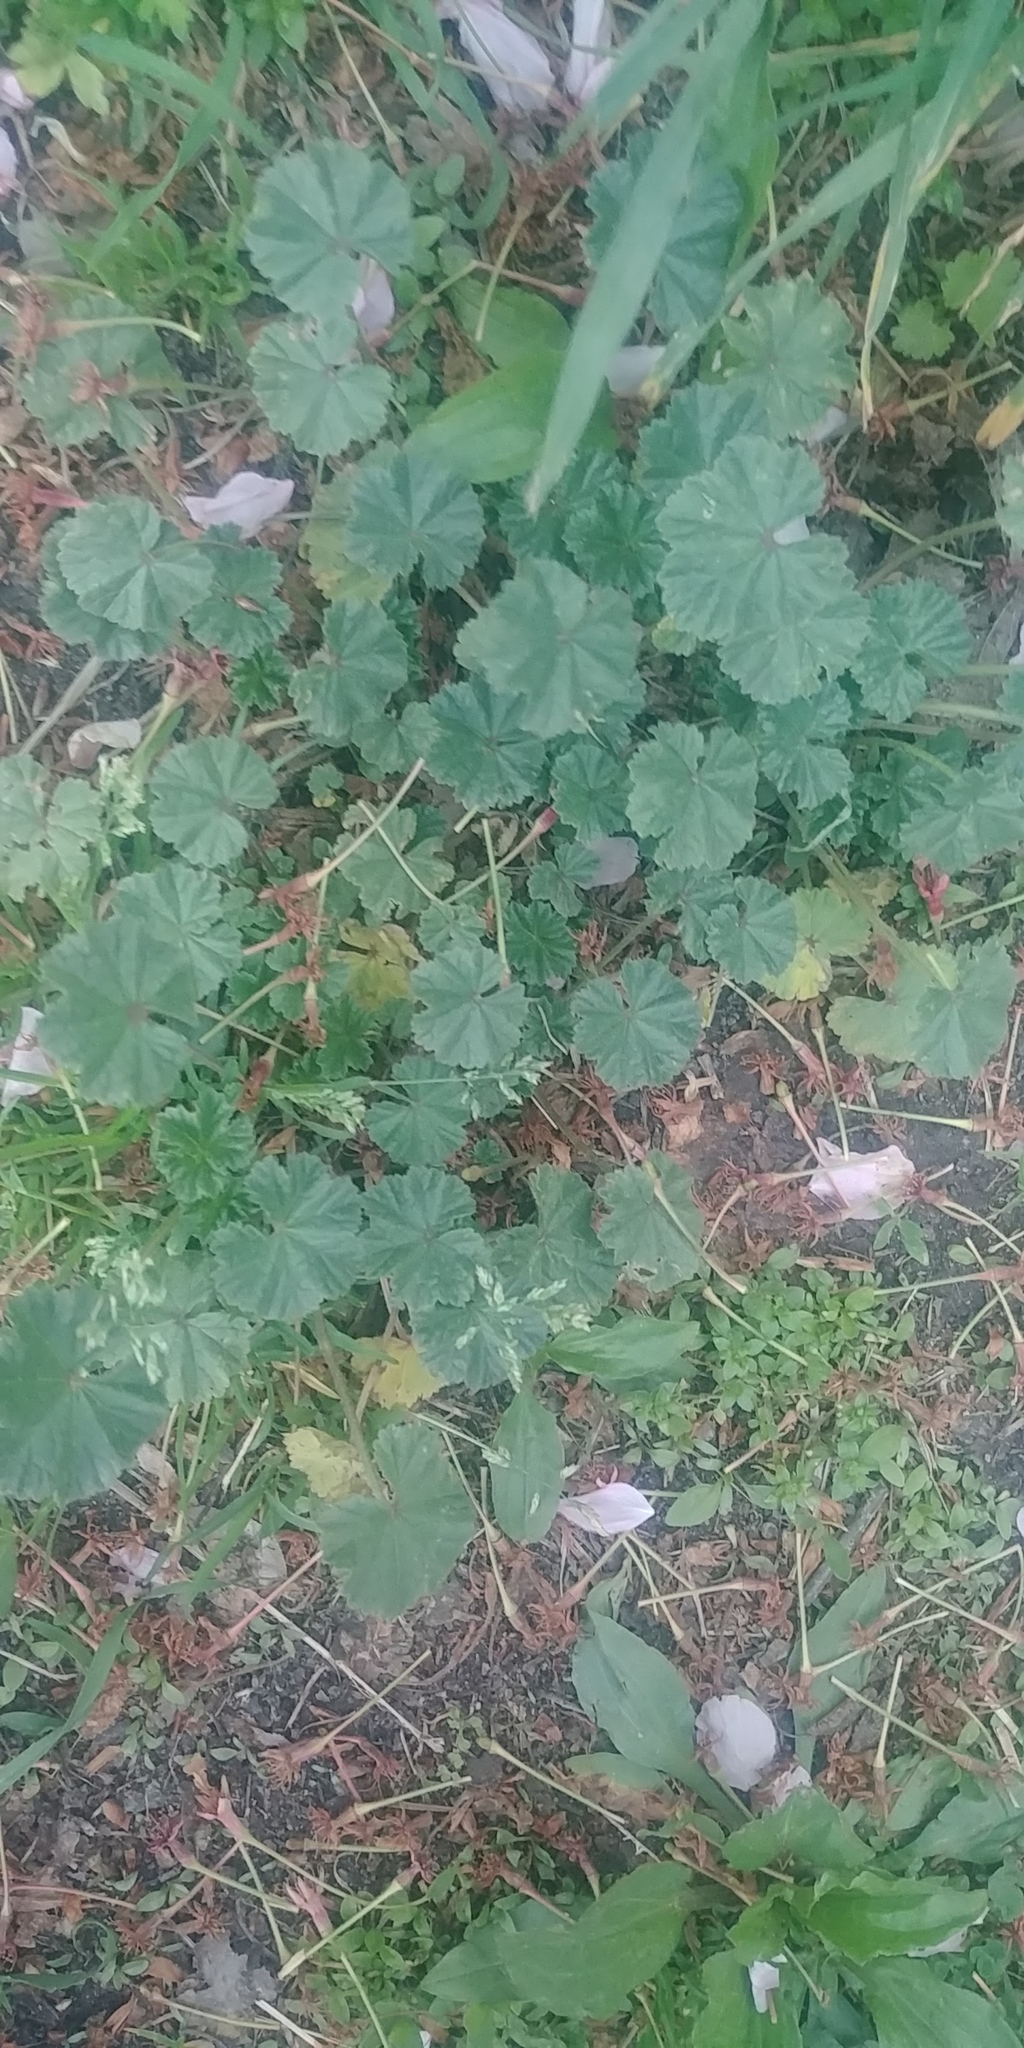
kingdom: Plantae
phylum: Tracheophyta
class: Magnoliopsida
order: Malvales
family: Malvaceae
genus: Malva
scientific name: Malva neglecta
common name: Common mallow
